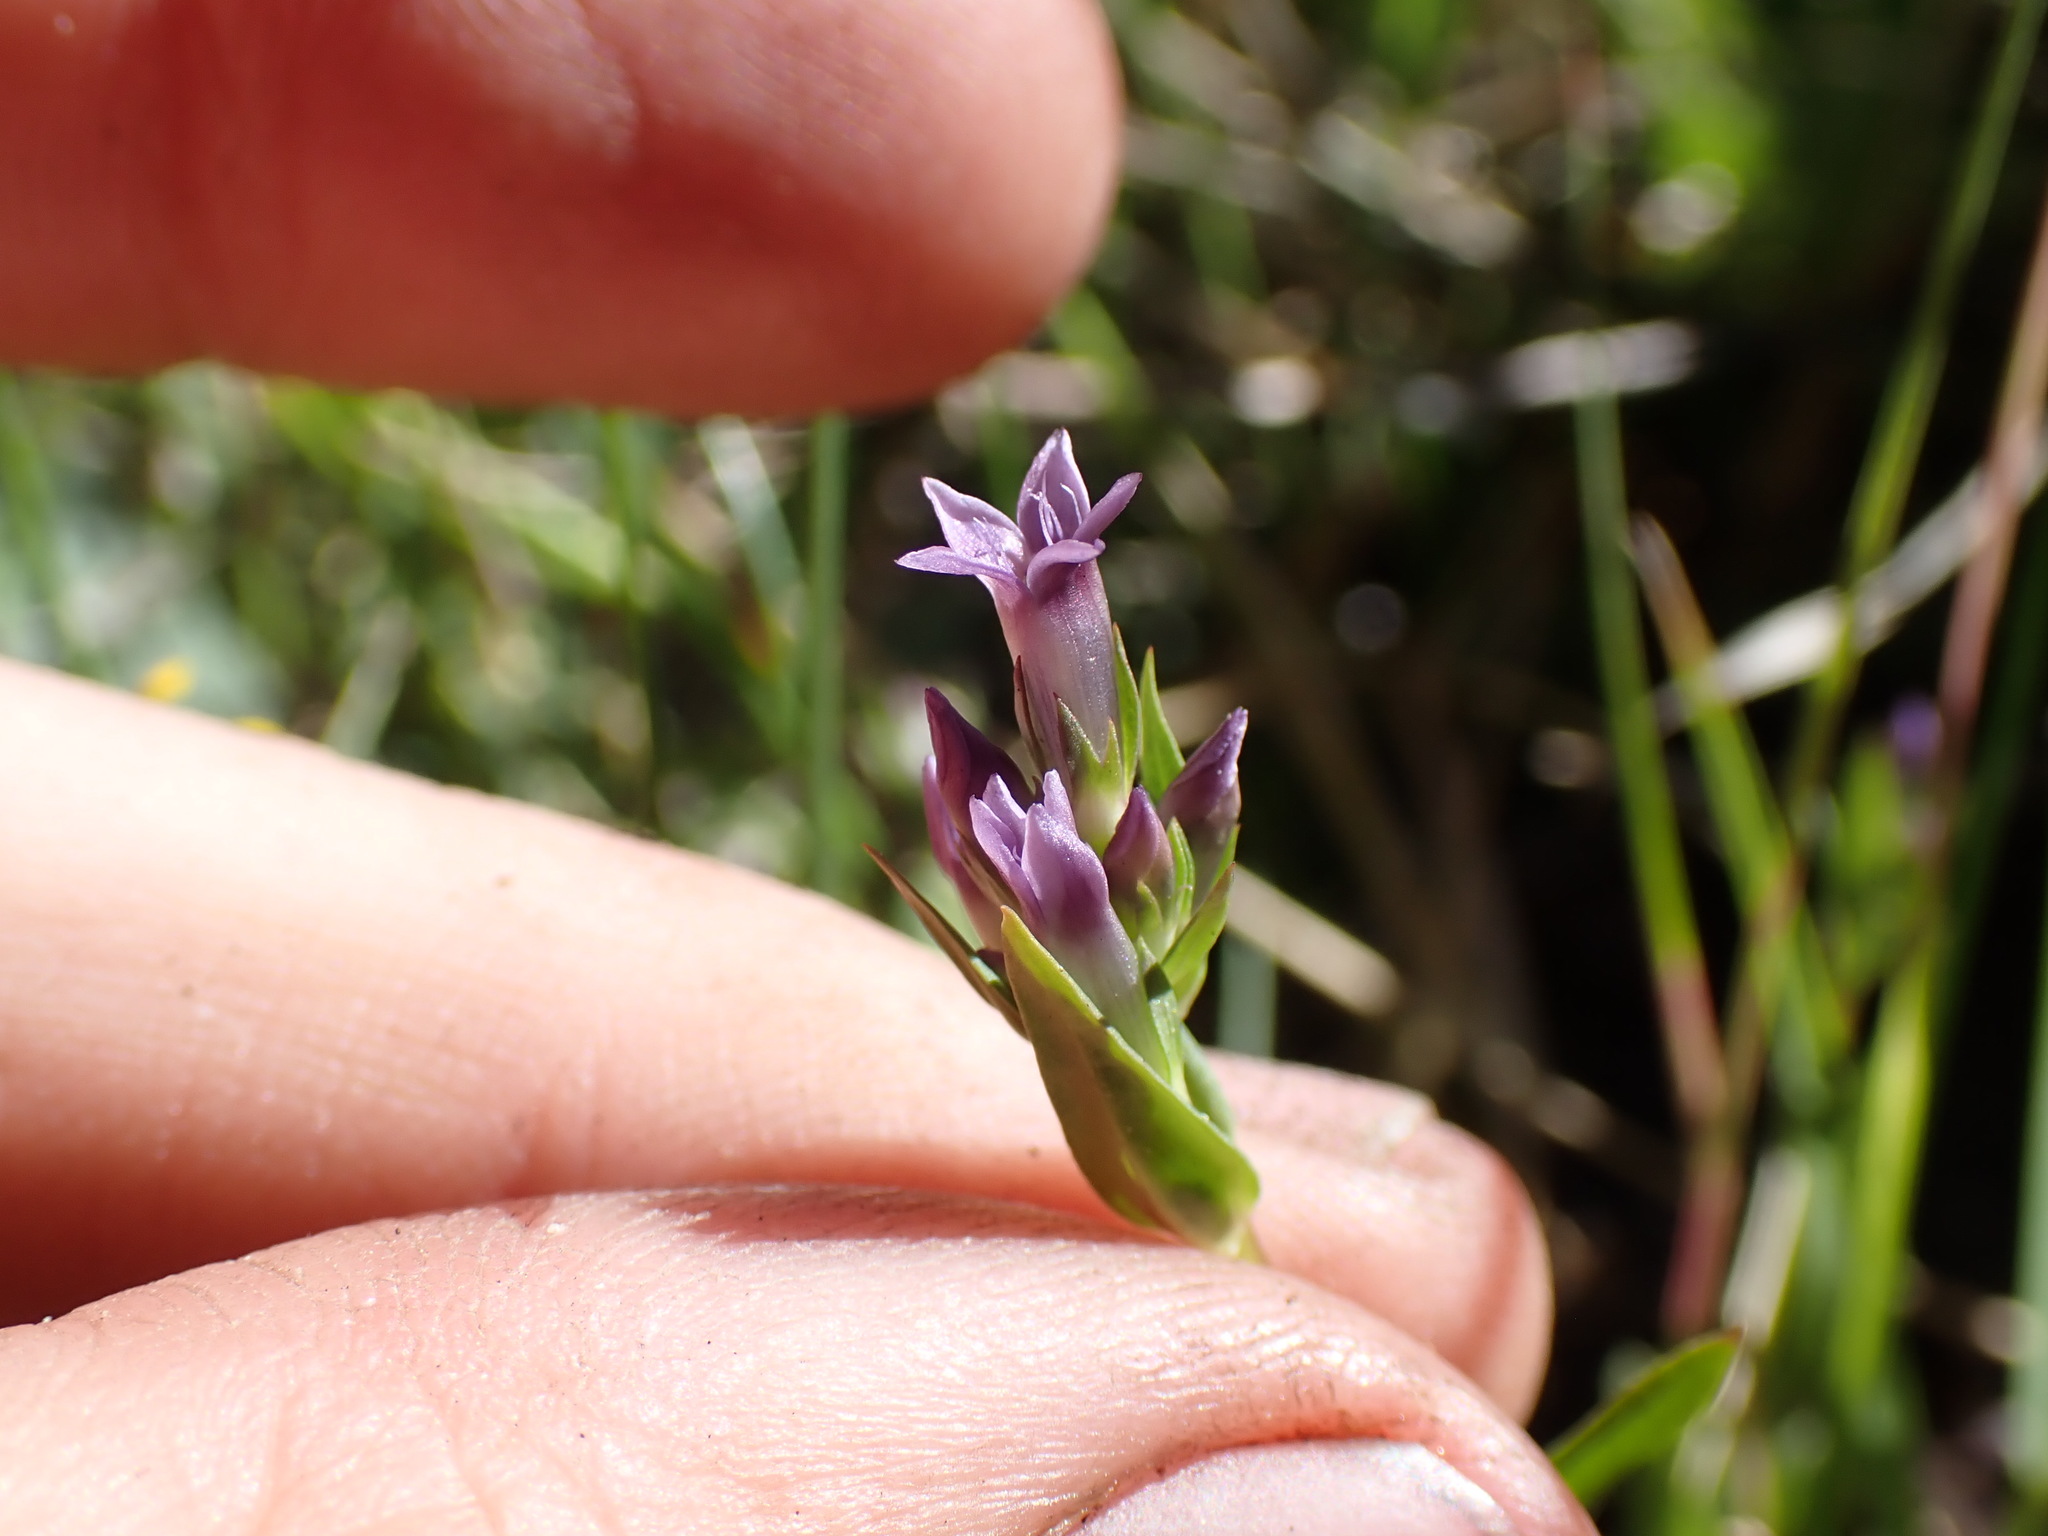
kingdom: Plantae
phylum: Tracheophyta
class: Magnoliopsida
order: Gentianales
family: Gentianaceae
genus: Gentianella
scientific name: Gentianella amarella
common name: Autumn gentian
